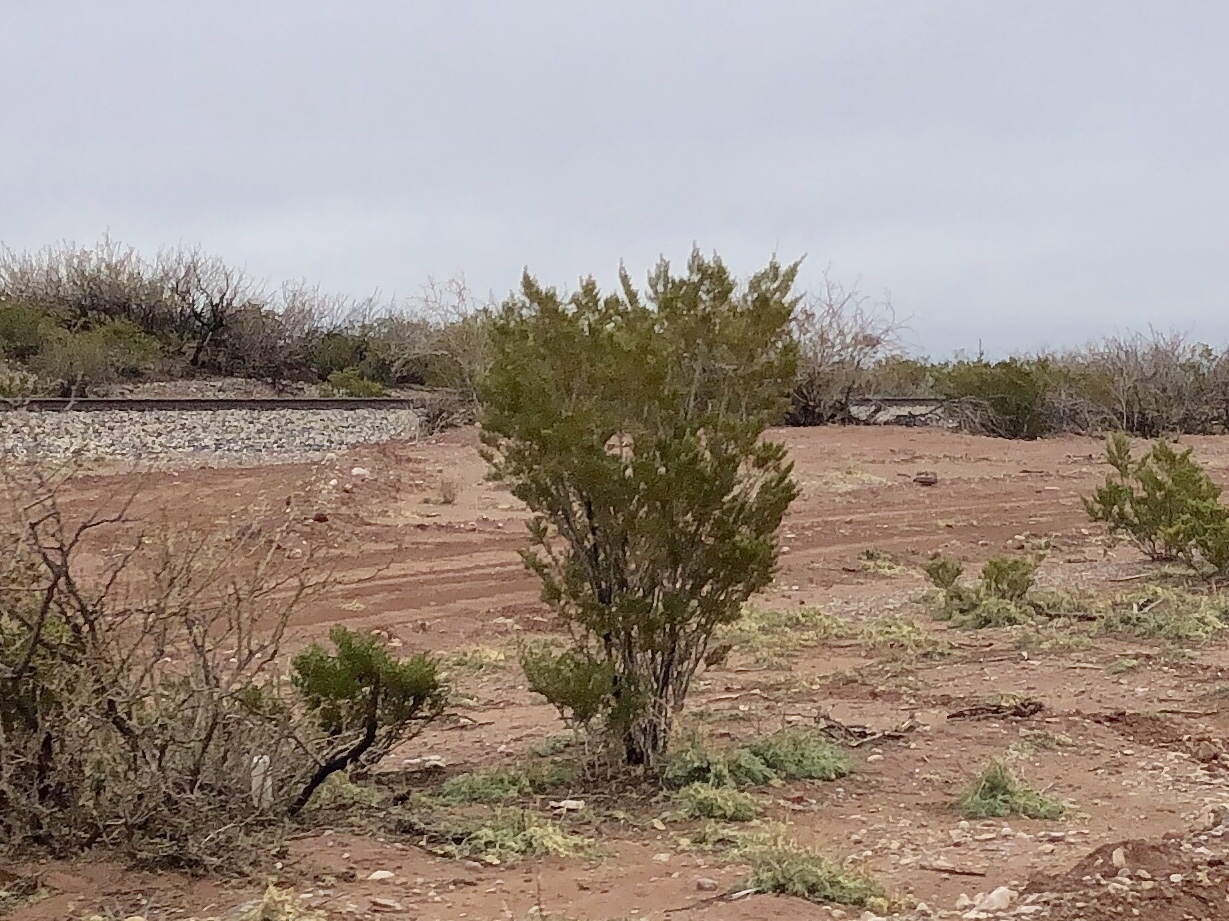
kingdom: Plantae
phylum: Tracheophyta
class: Magnoliopsida
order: Zygophyllales
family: Zygophyllaceae
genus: Larrea
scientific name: Larrea tridentata
